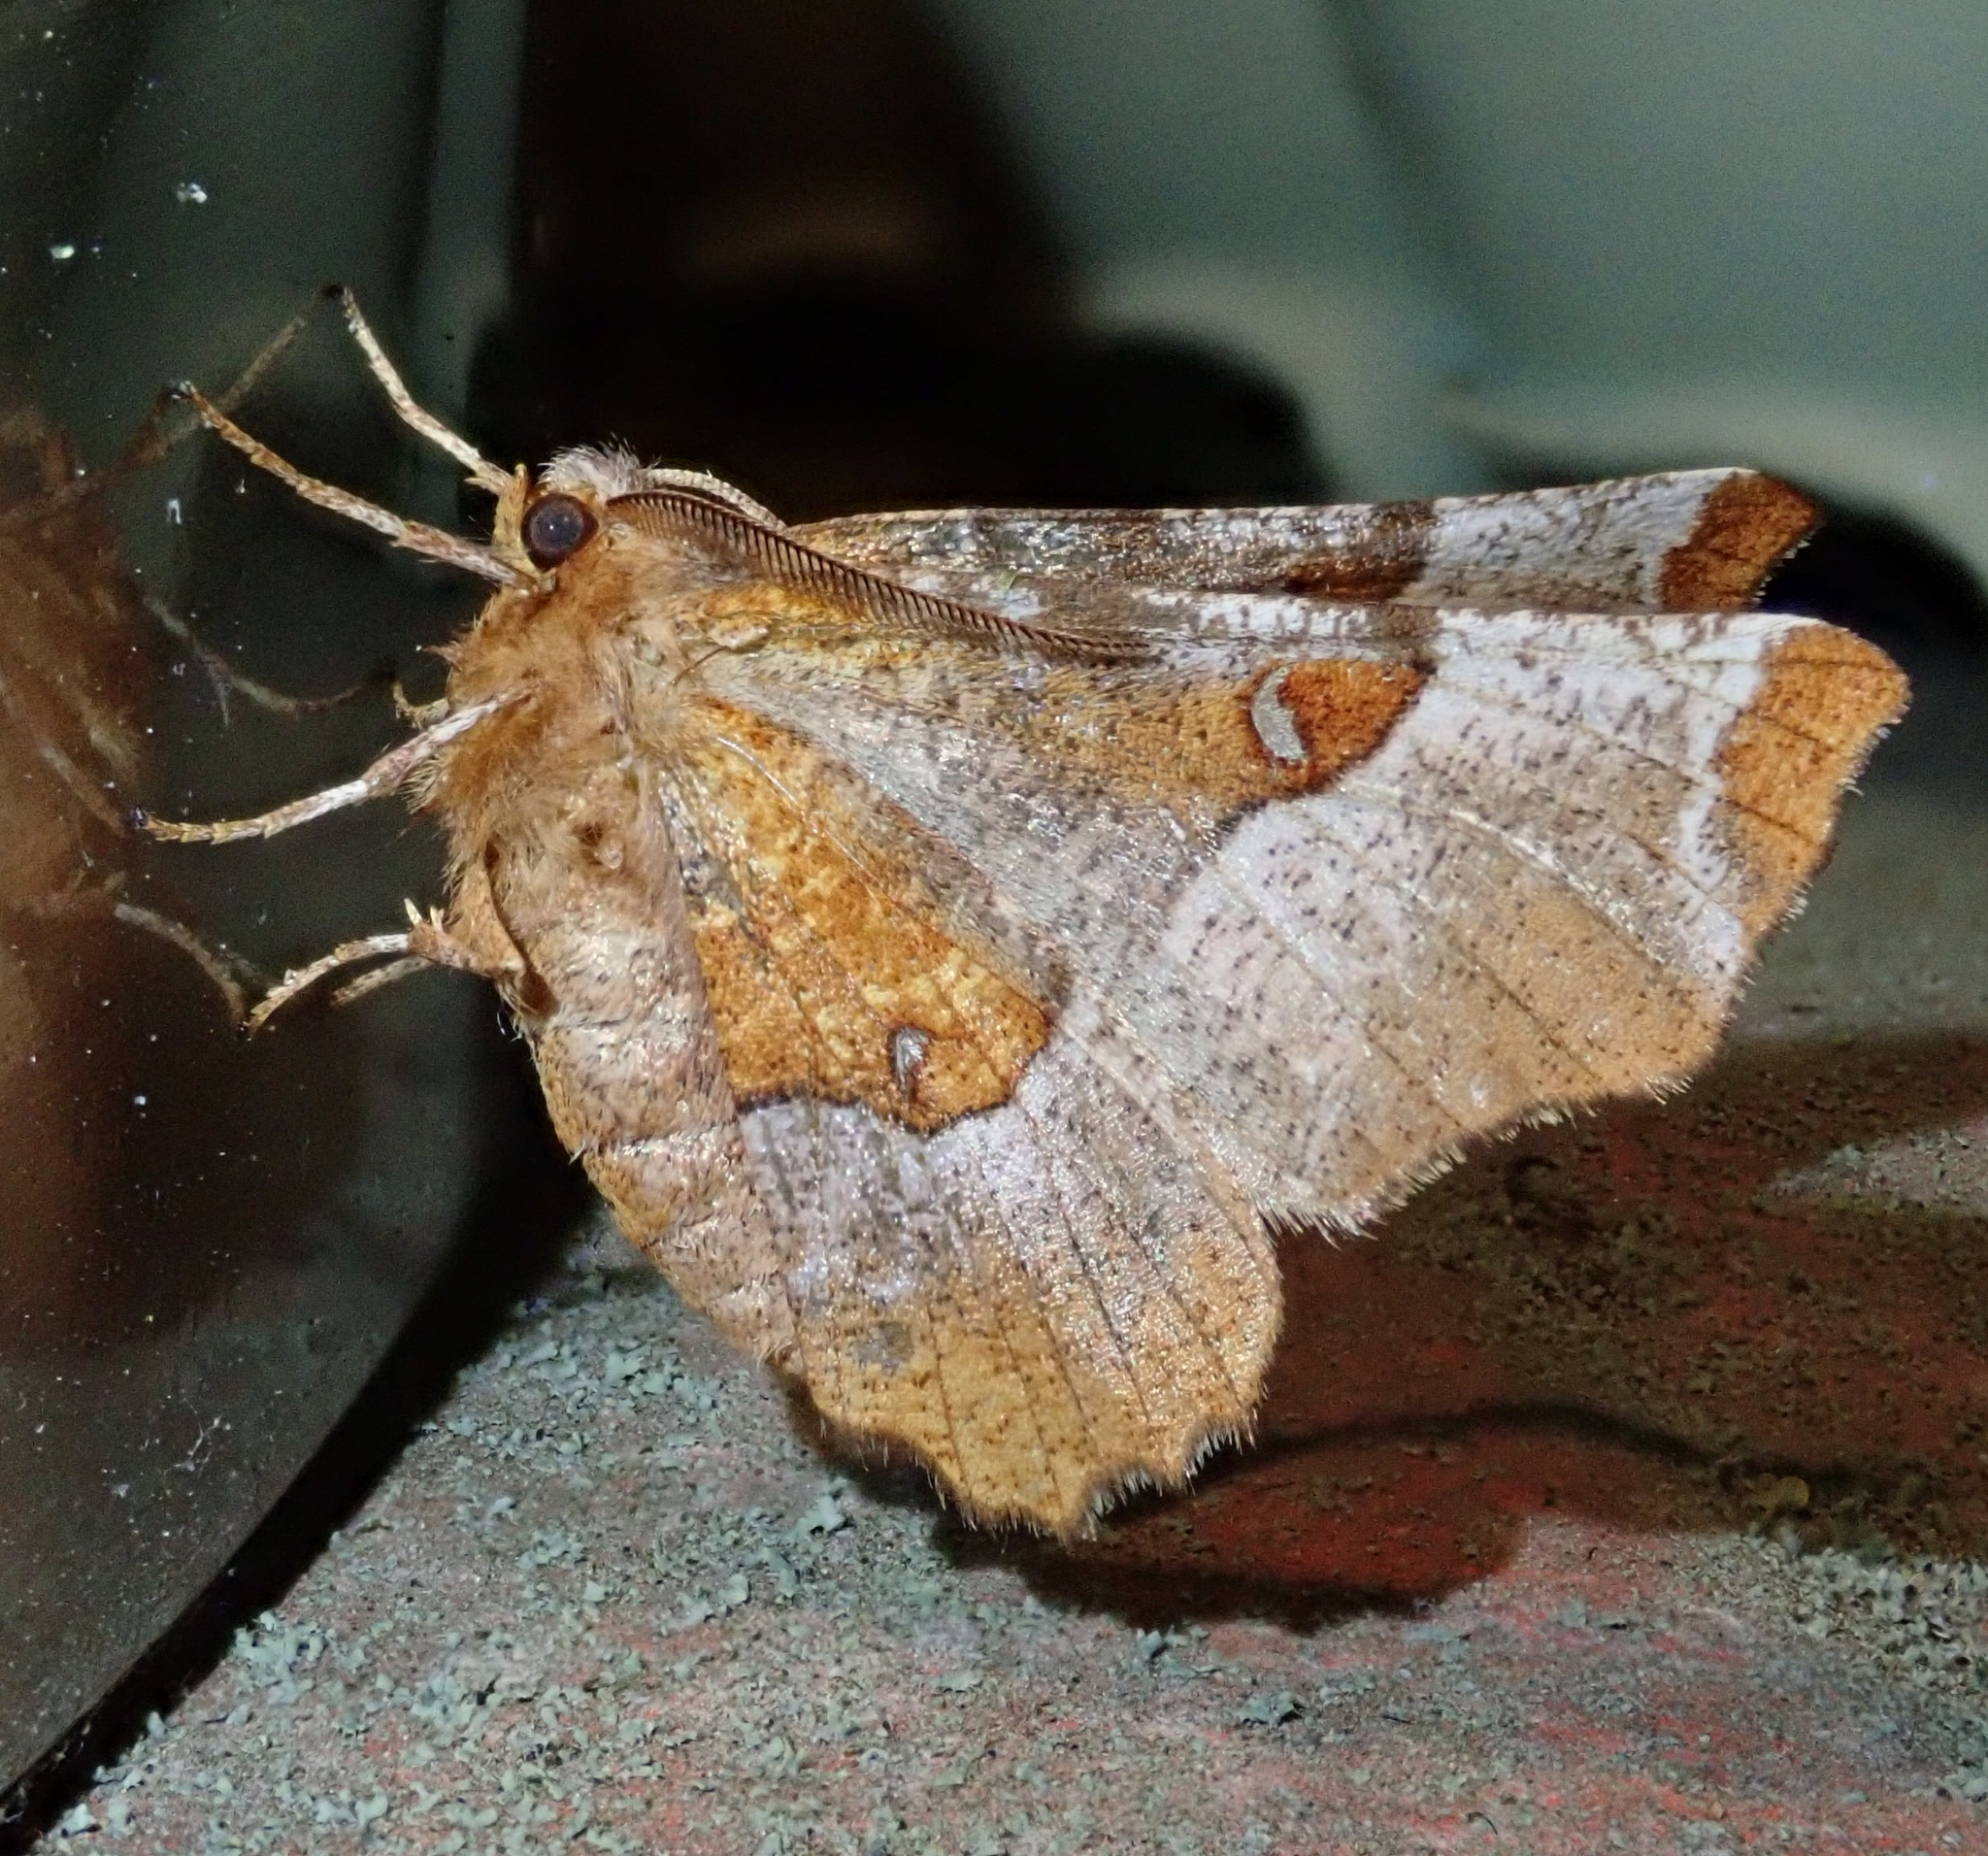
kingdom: Animalia
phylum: Arthropoda
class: Insecta
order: Lepidoptera
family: Geometridae
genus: Selenia
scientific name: Selenia tetralunaria
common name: Purple thorn
